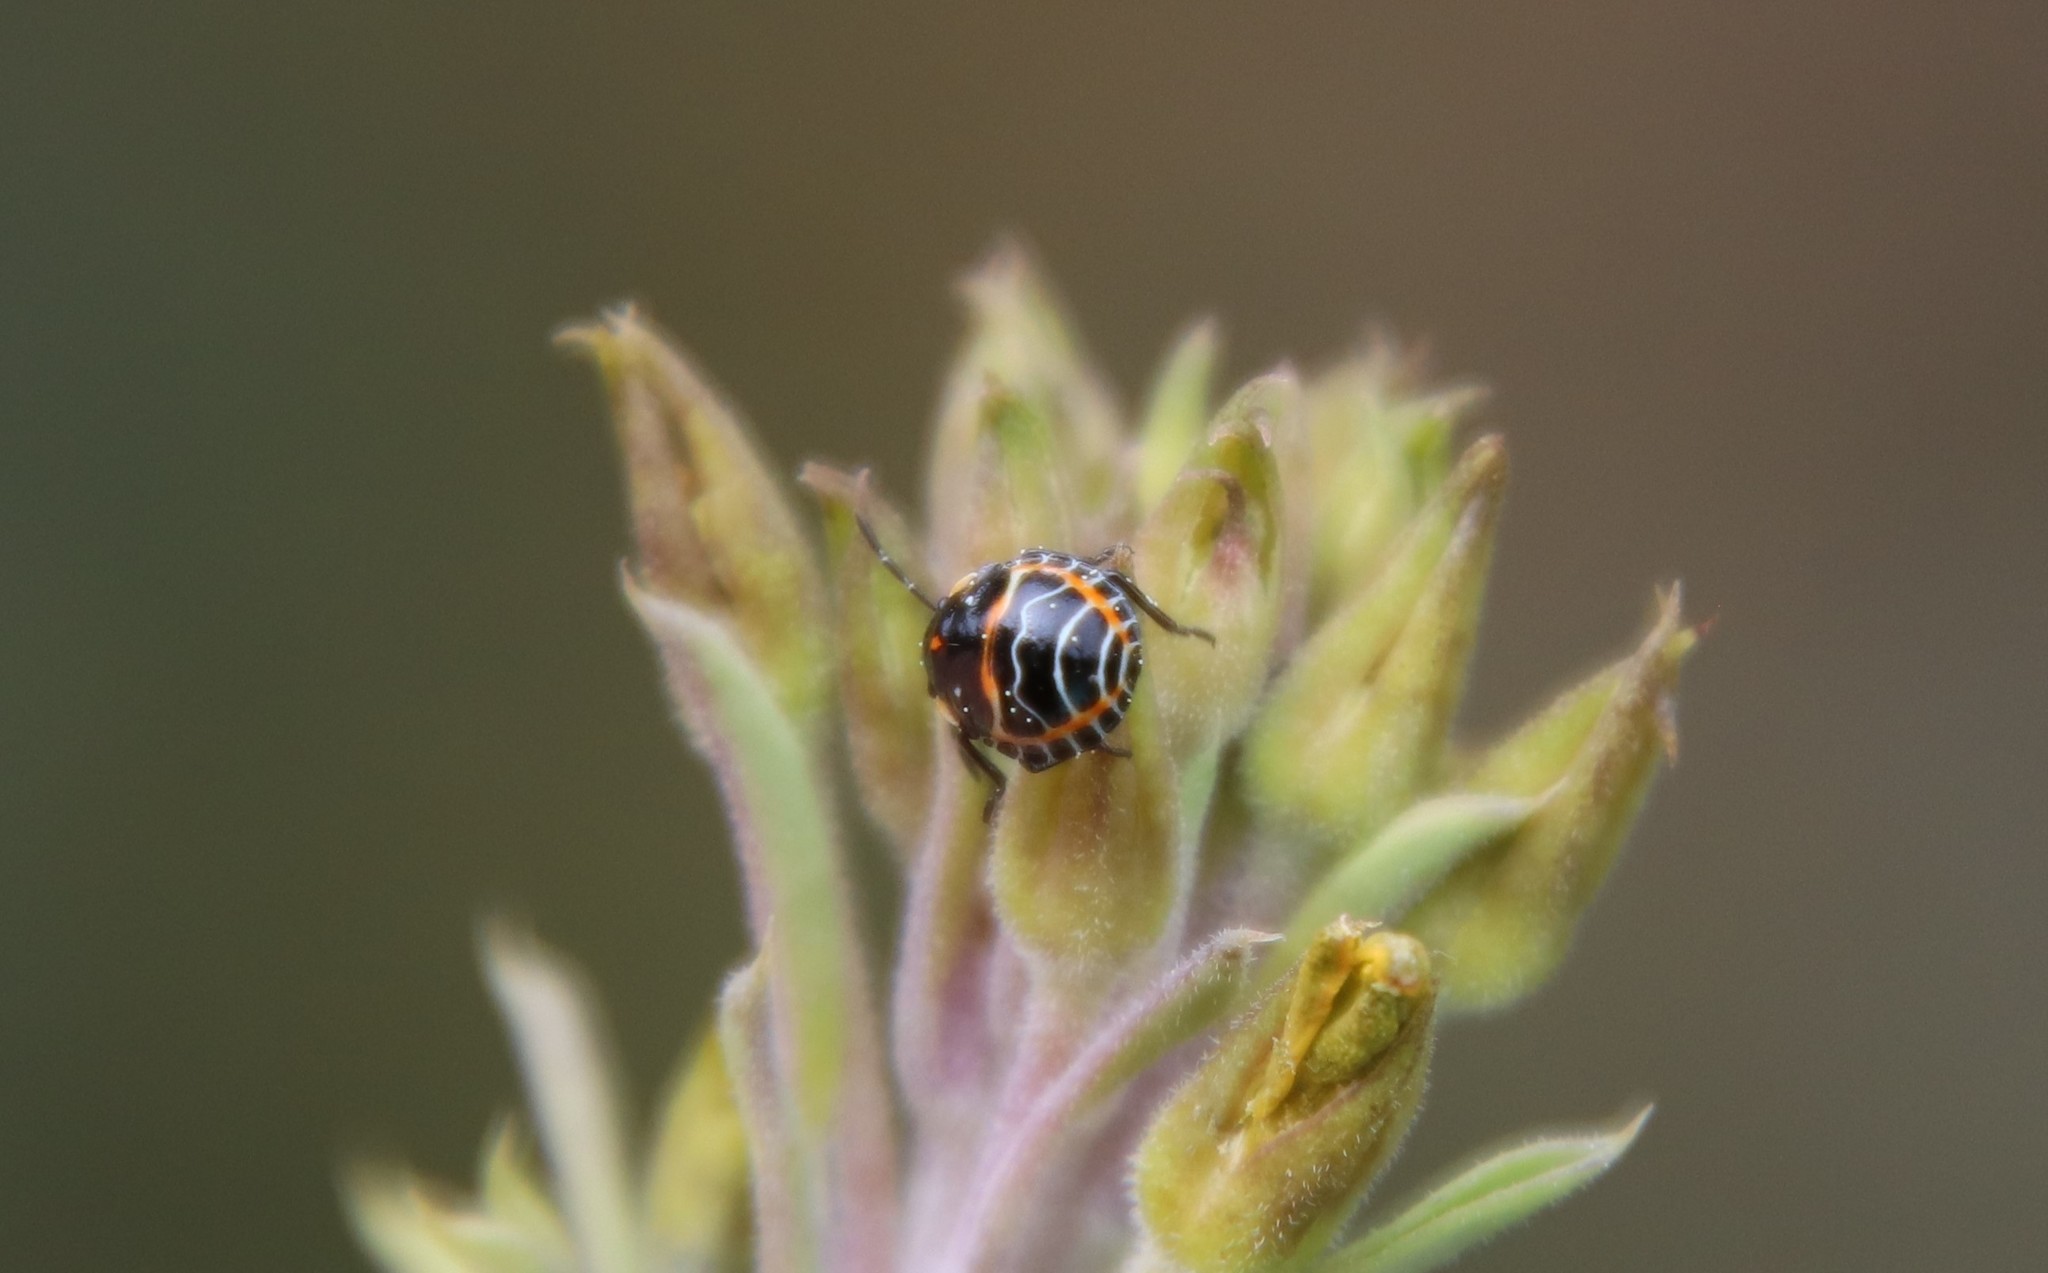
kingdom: Animalia
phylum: Arthropoda
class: Insecta
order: Hemiptera
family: Pentatomidae
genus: Murgantia
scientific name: Murgantia histrionica
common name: Harlequin bug
